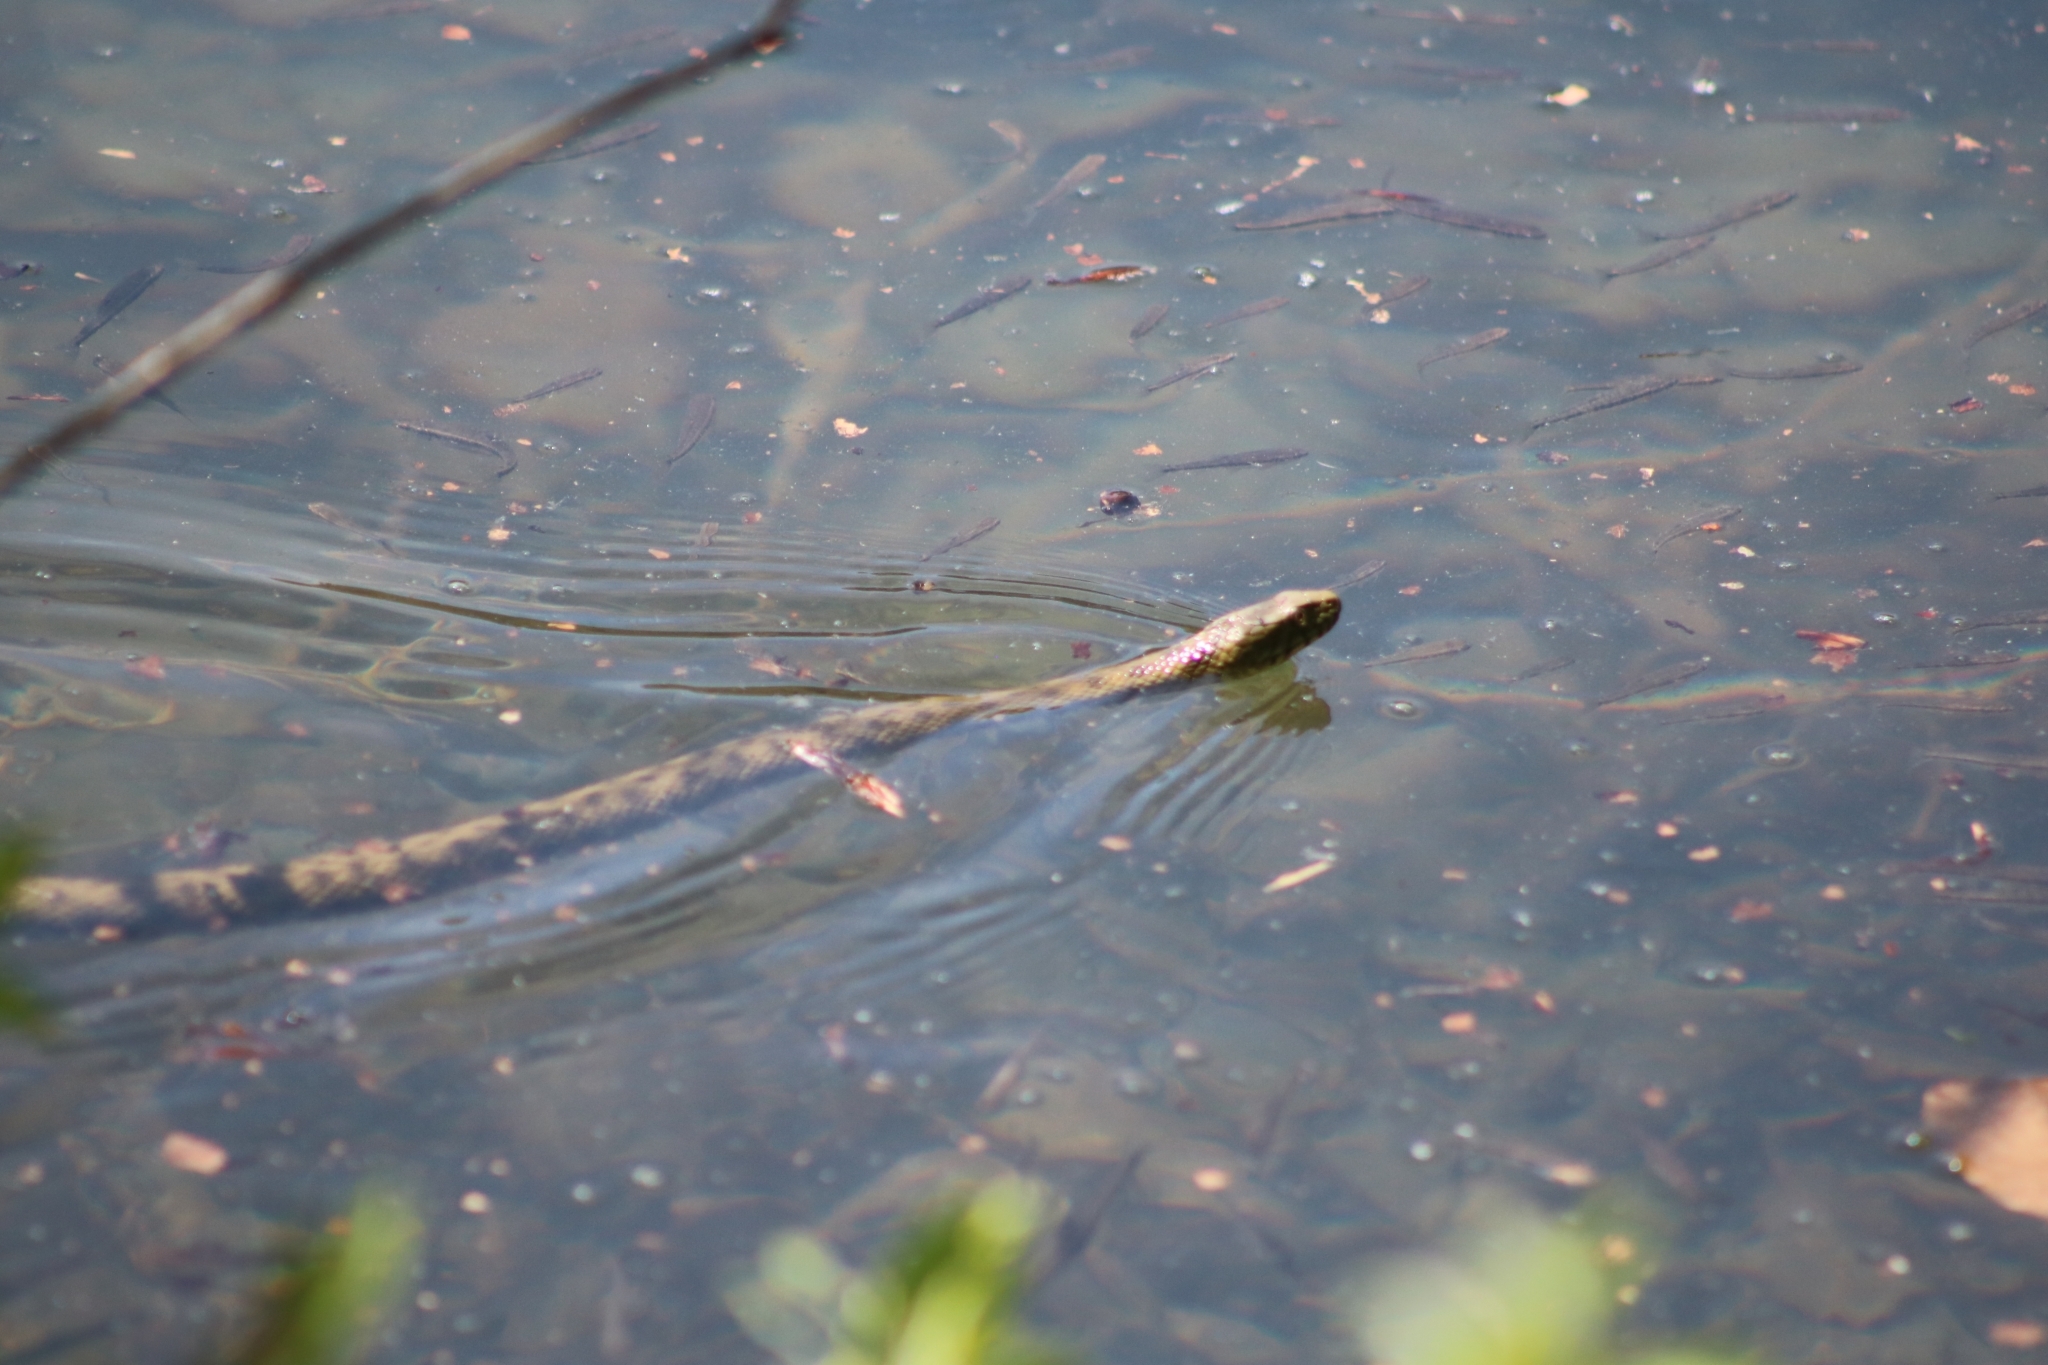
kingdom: Animalia
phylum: Chordata
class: Squamata
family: Colubridae
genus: Natrix
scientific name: Natrix tessellata
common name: Dice snake
